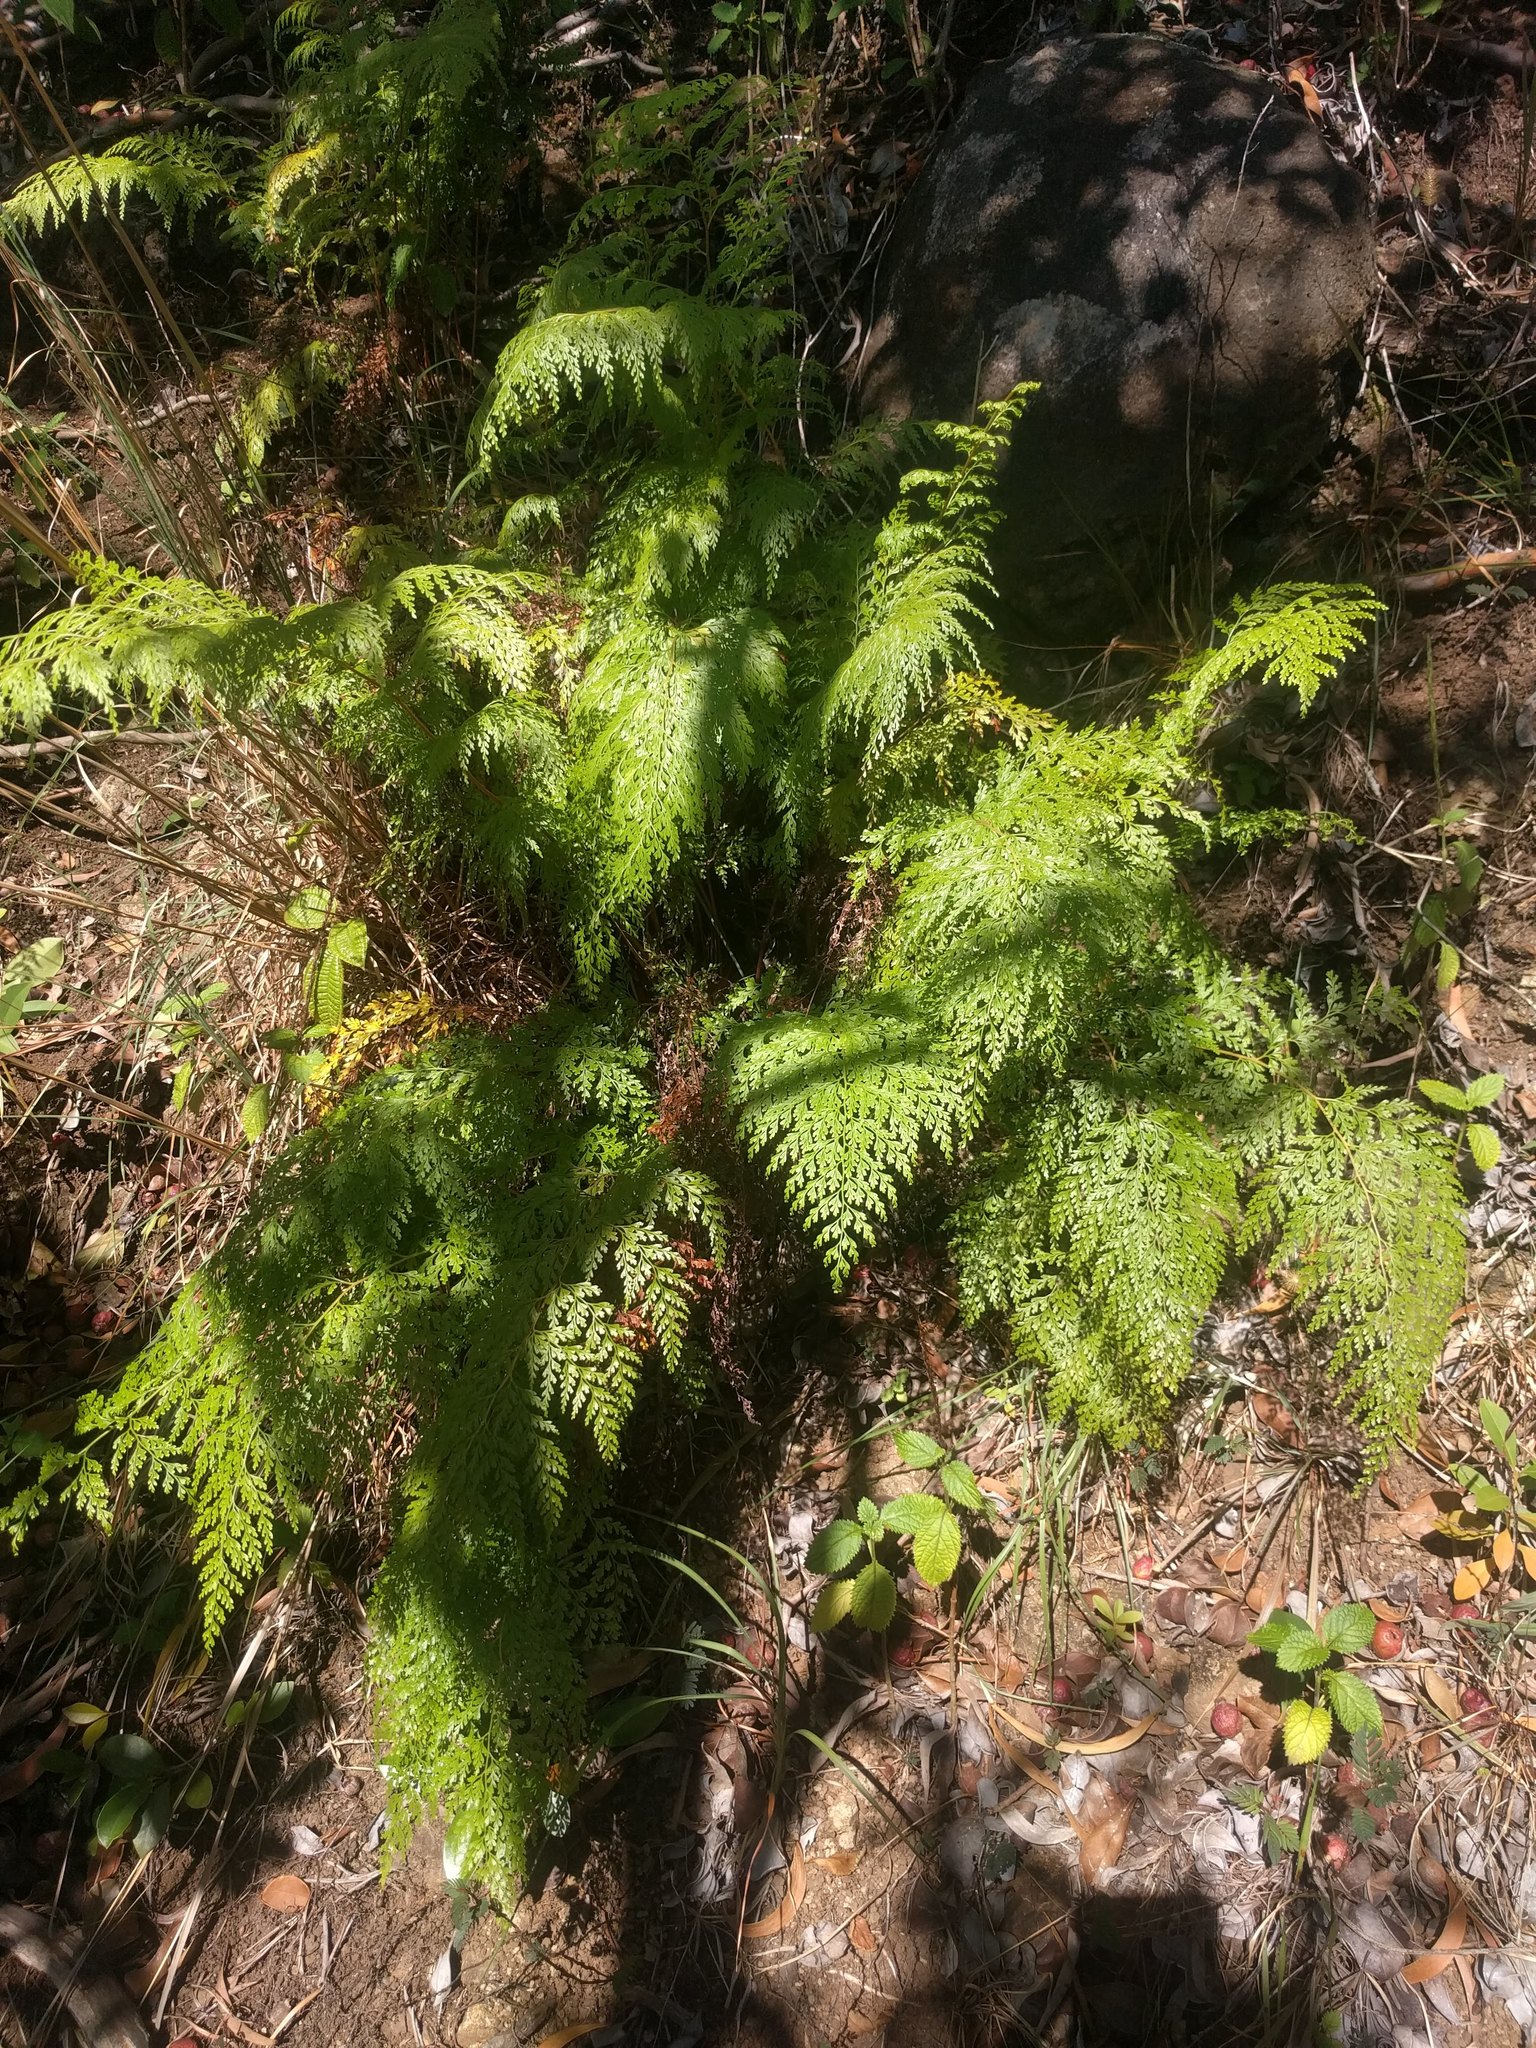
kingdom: Plantae
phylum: Tracheophyta
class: Polypodiopsida
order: Polypodiales
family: Lindsaeaceae
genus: Odontosoria
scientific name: Odontosoria chinensis
